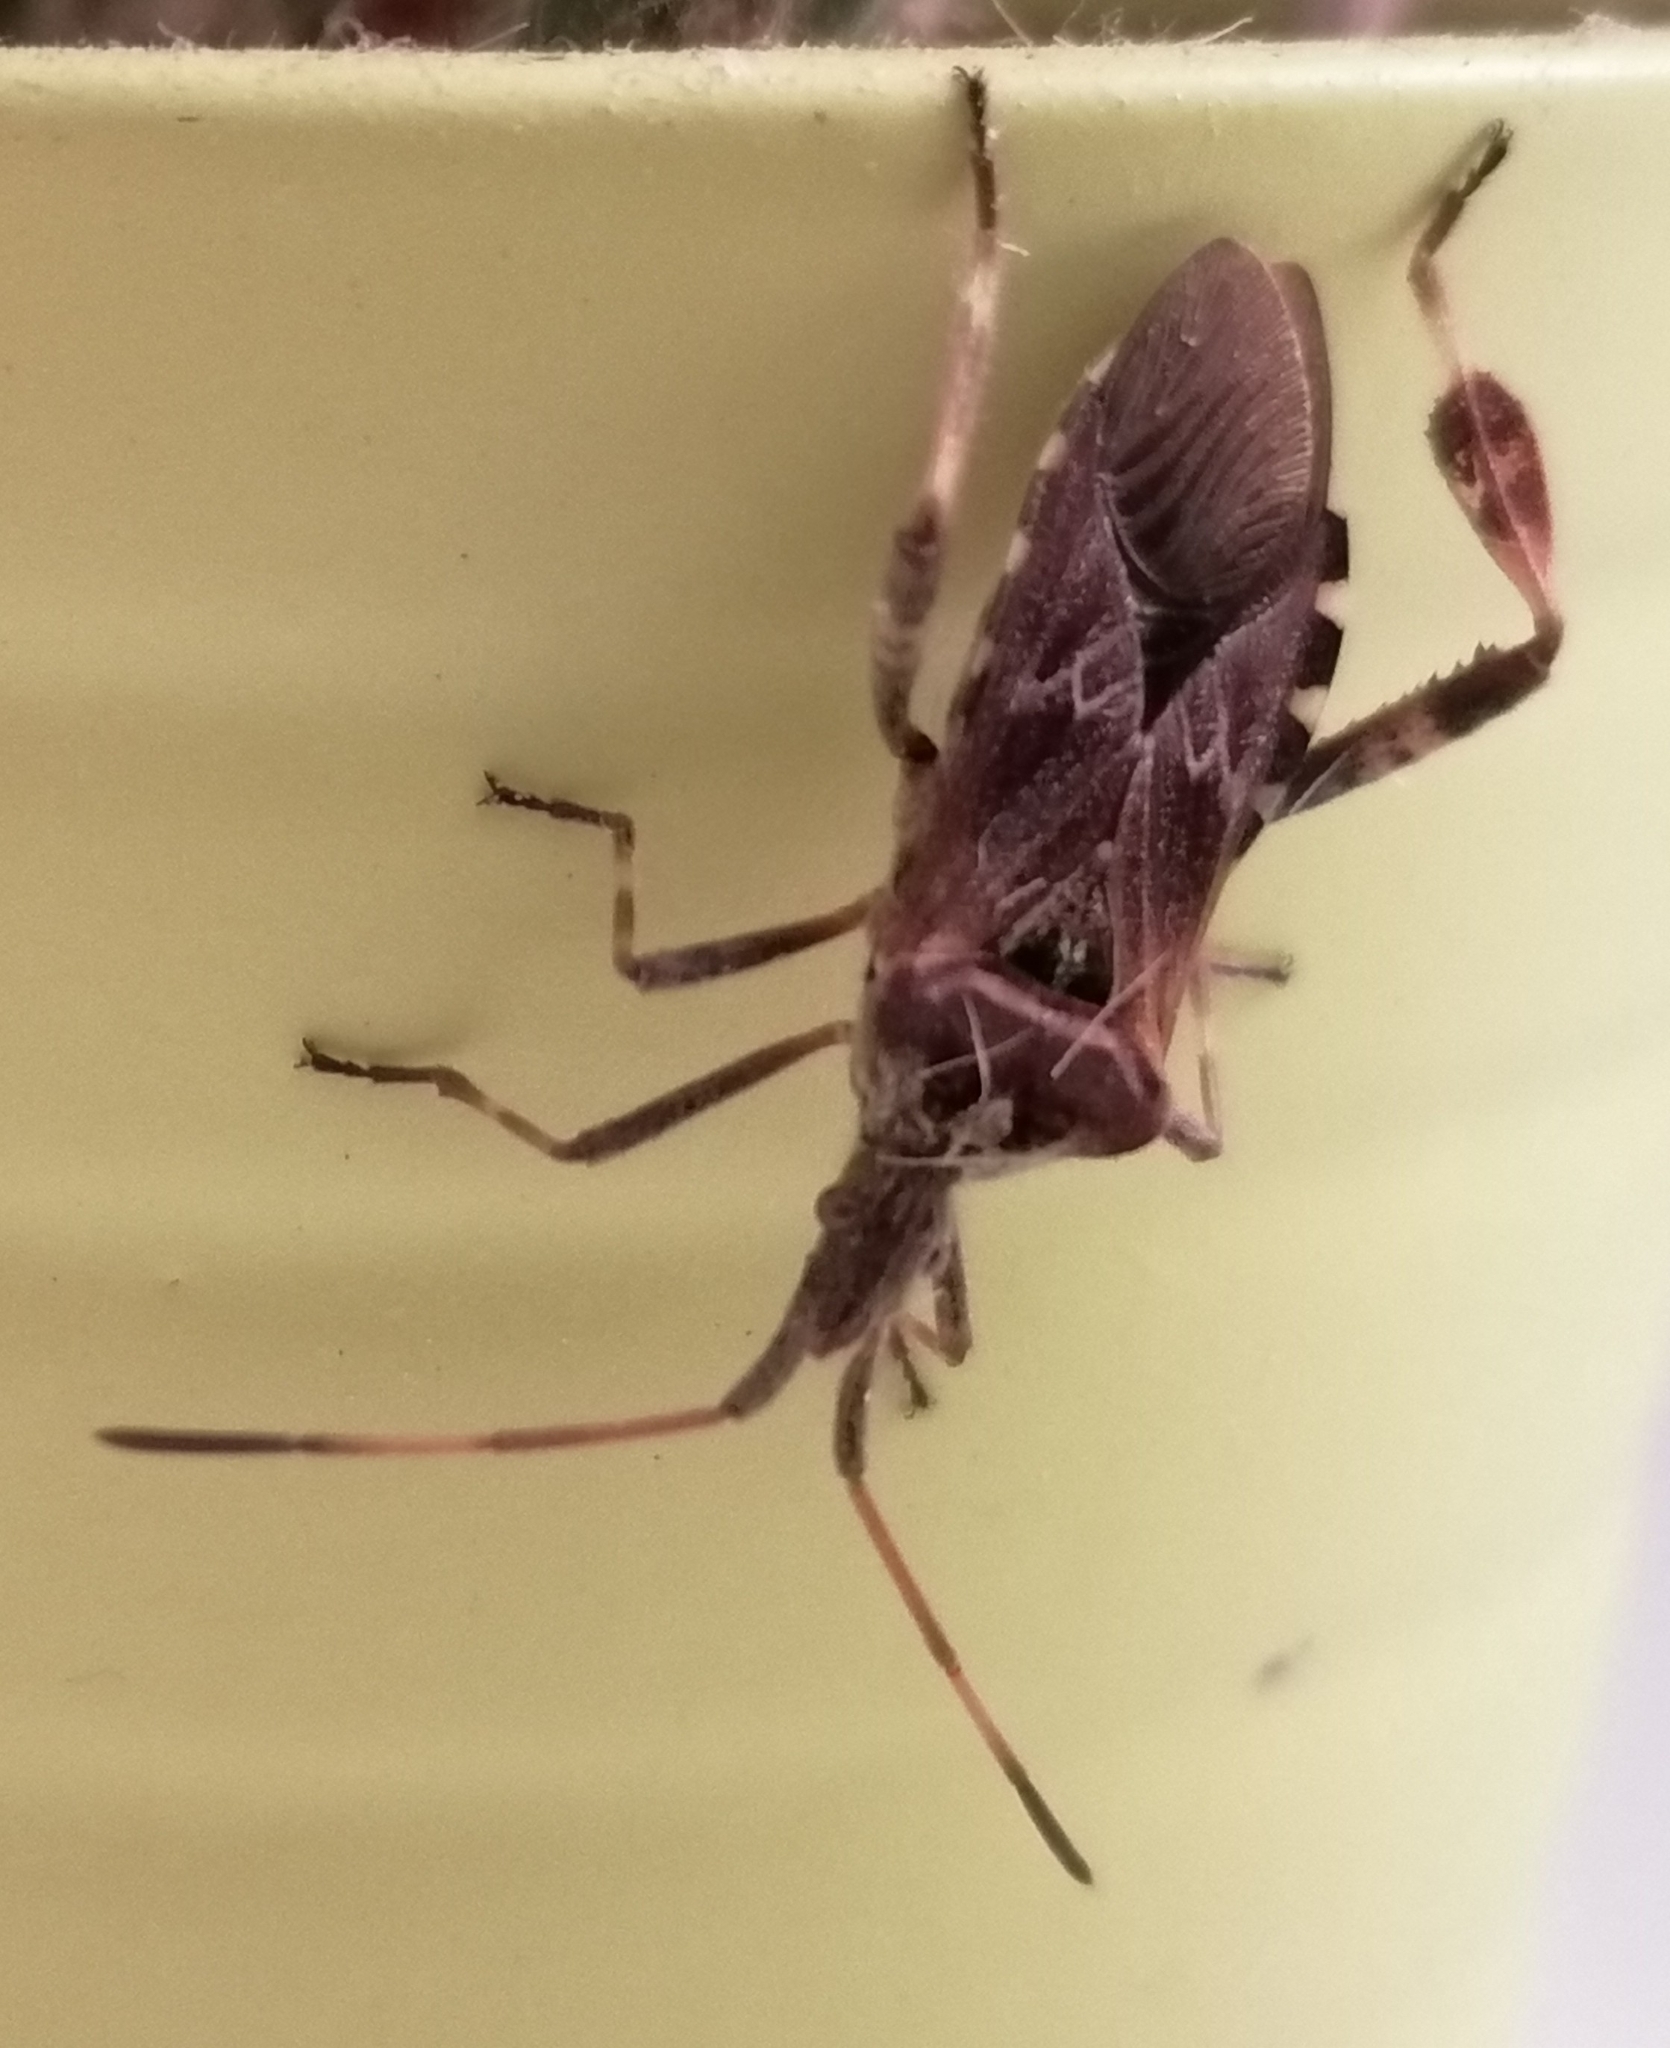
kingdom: Animalia
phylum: Arthropoda
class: Insecta
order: Hemiptera
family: Coreidae
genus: Leptoglossus
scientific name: Leptoglossus occidentalis
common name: Western conifer-seed bug
